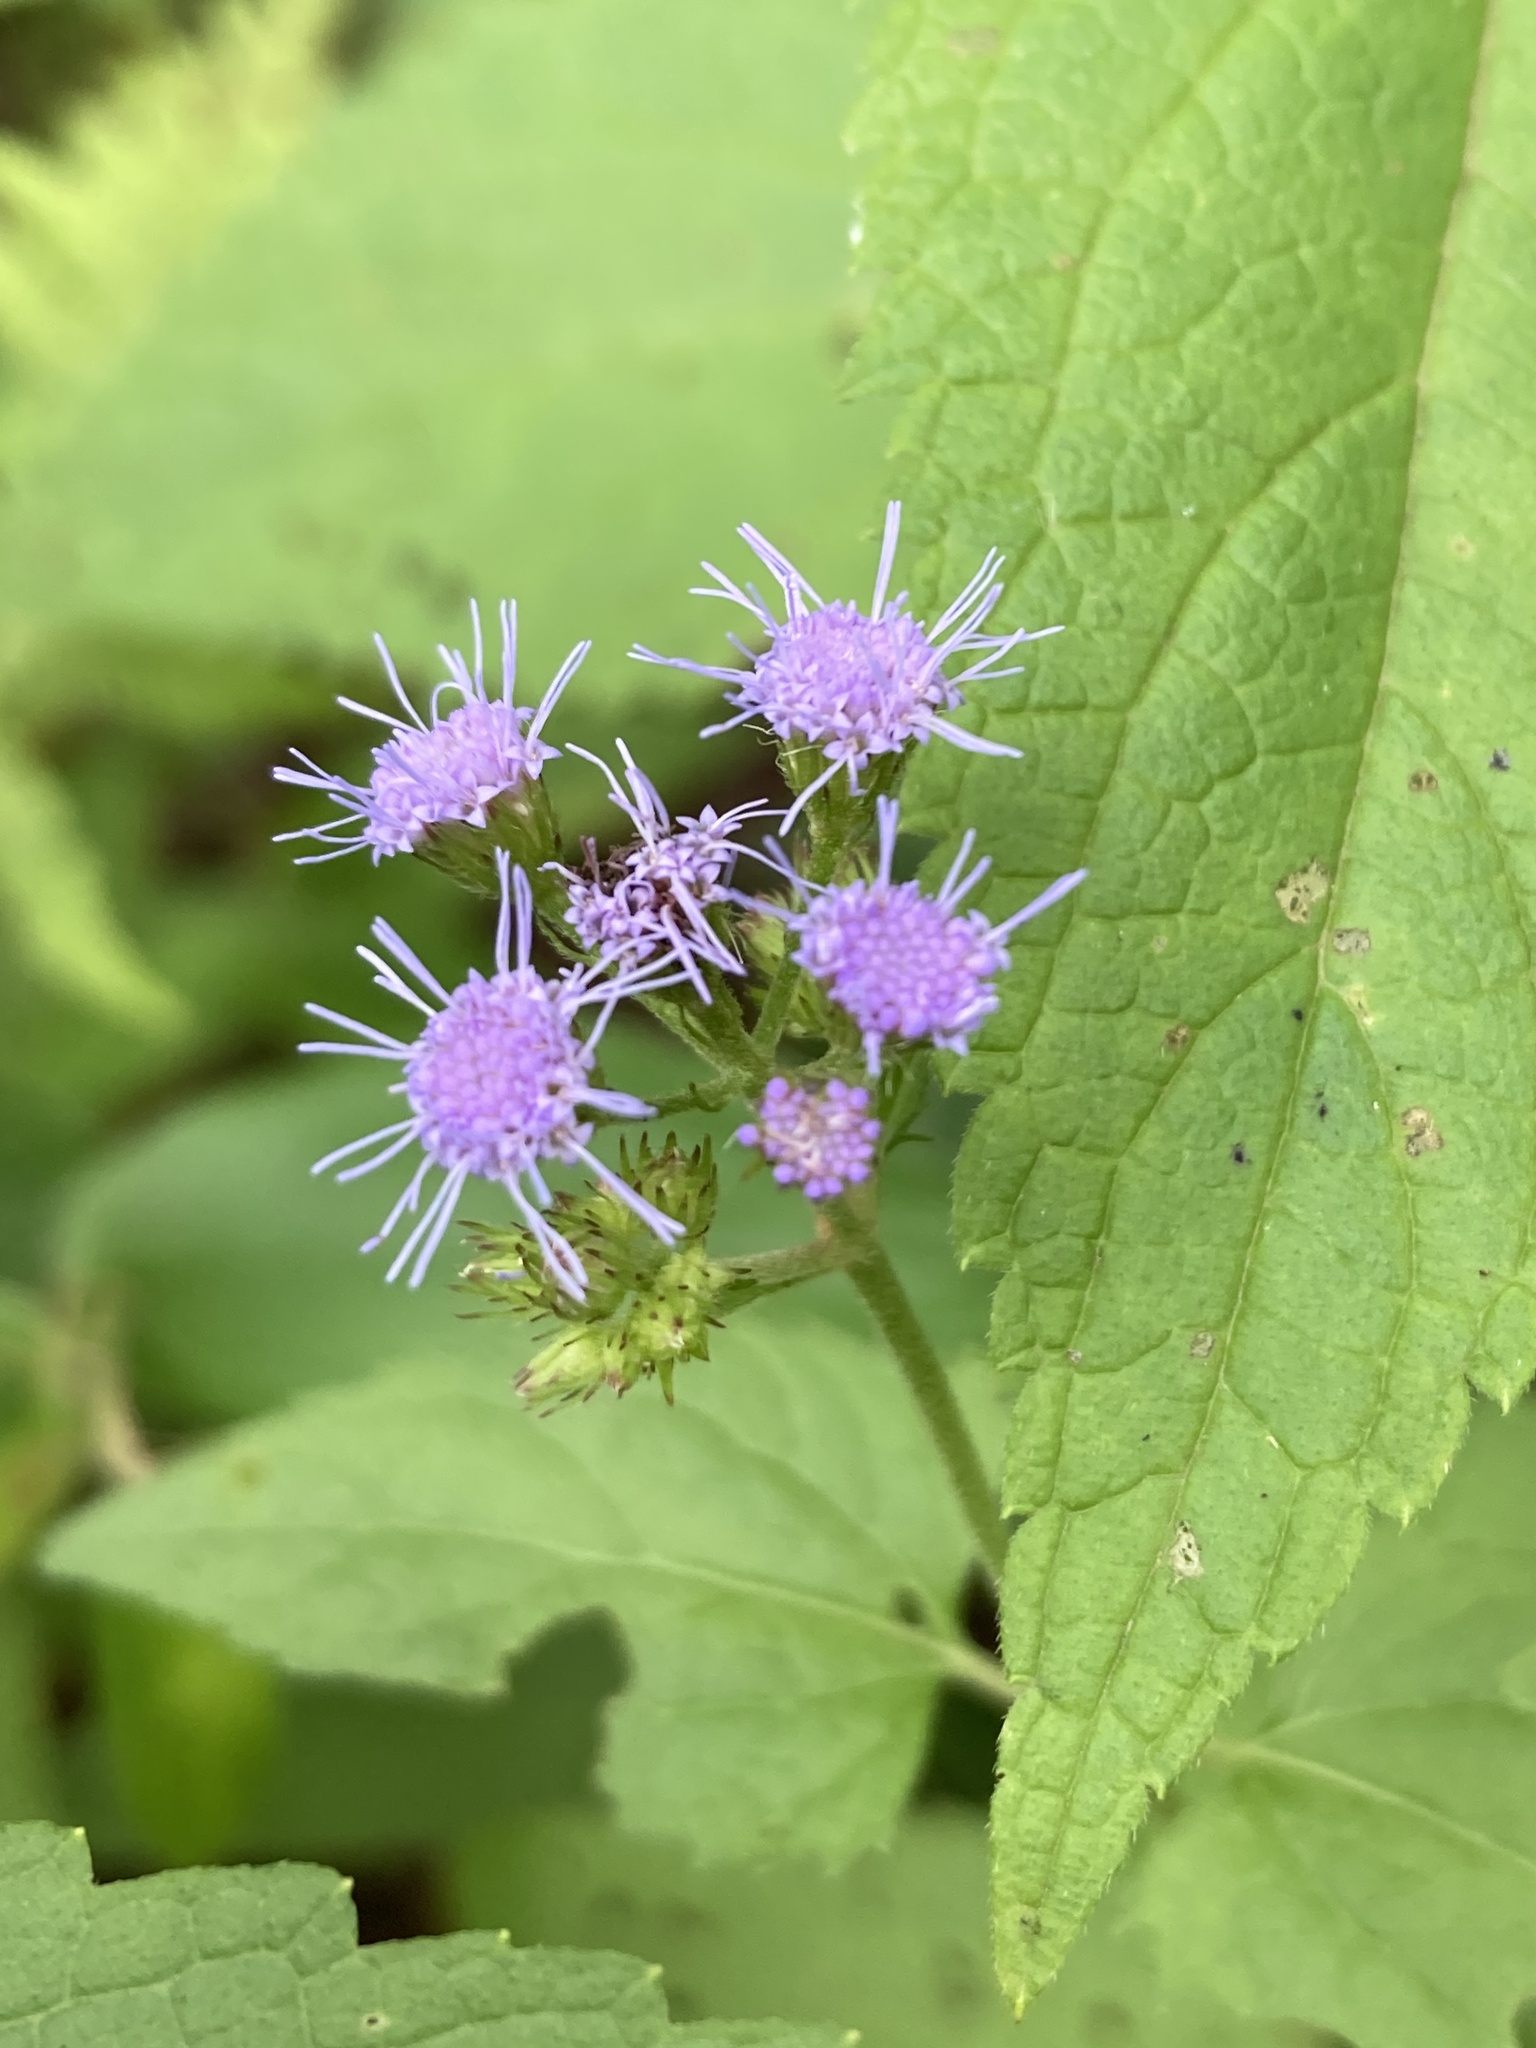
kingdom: Plantae
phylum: Tracheophyta
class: Magnoliopsida
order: Asterales
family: Asteraceae
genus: Conoclinium
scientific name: Conoclinium coelestinum
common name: Blue mistflower
